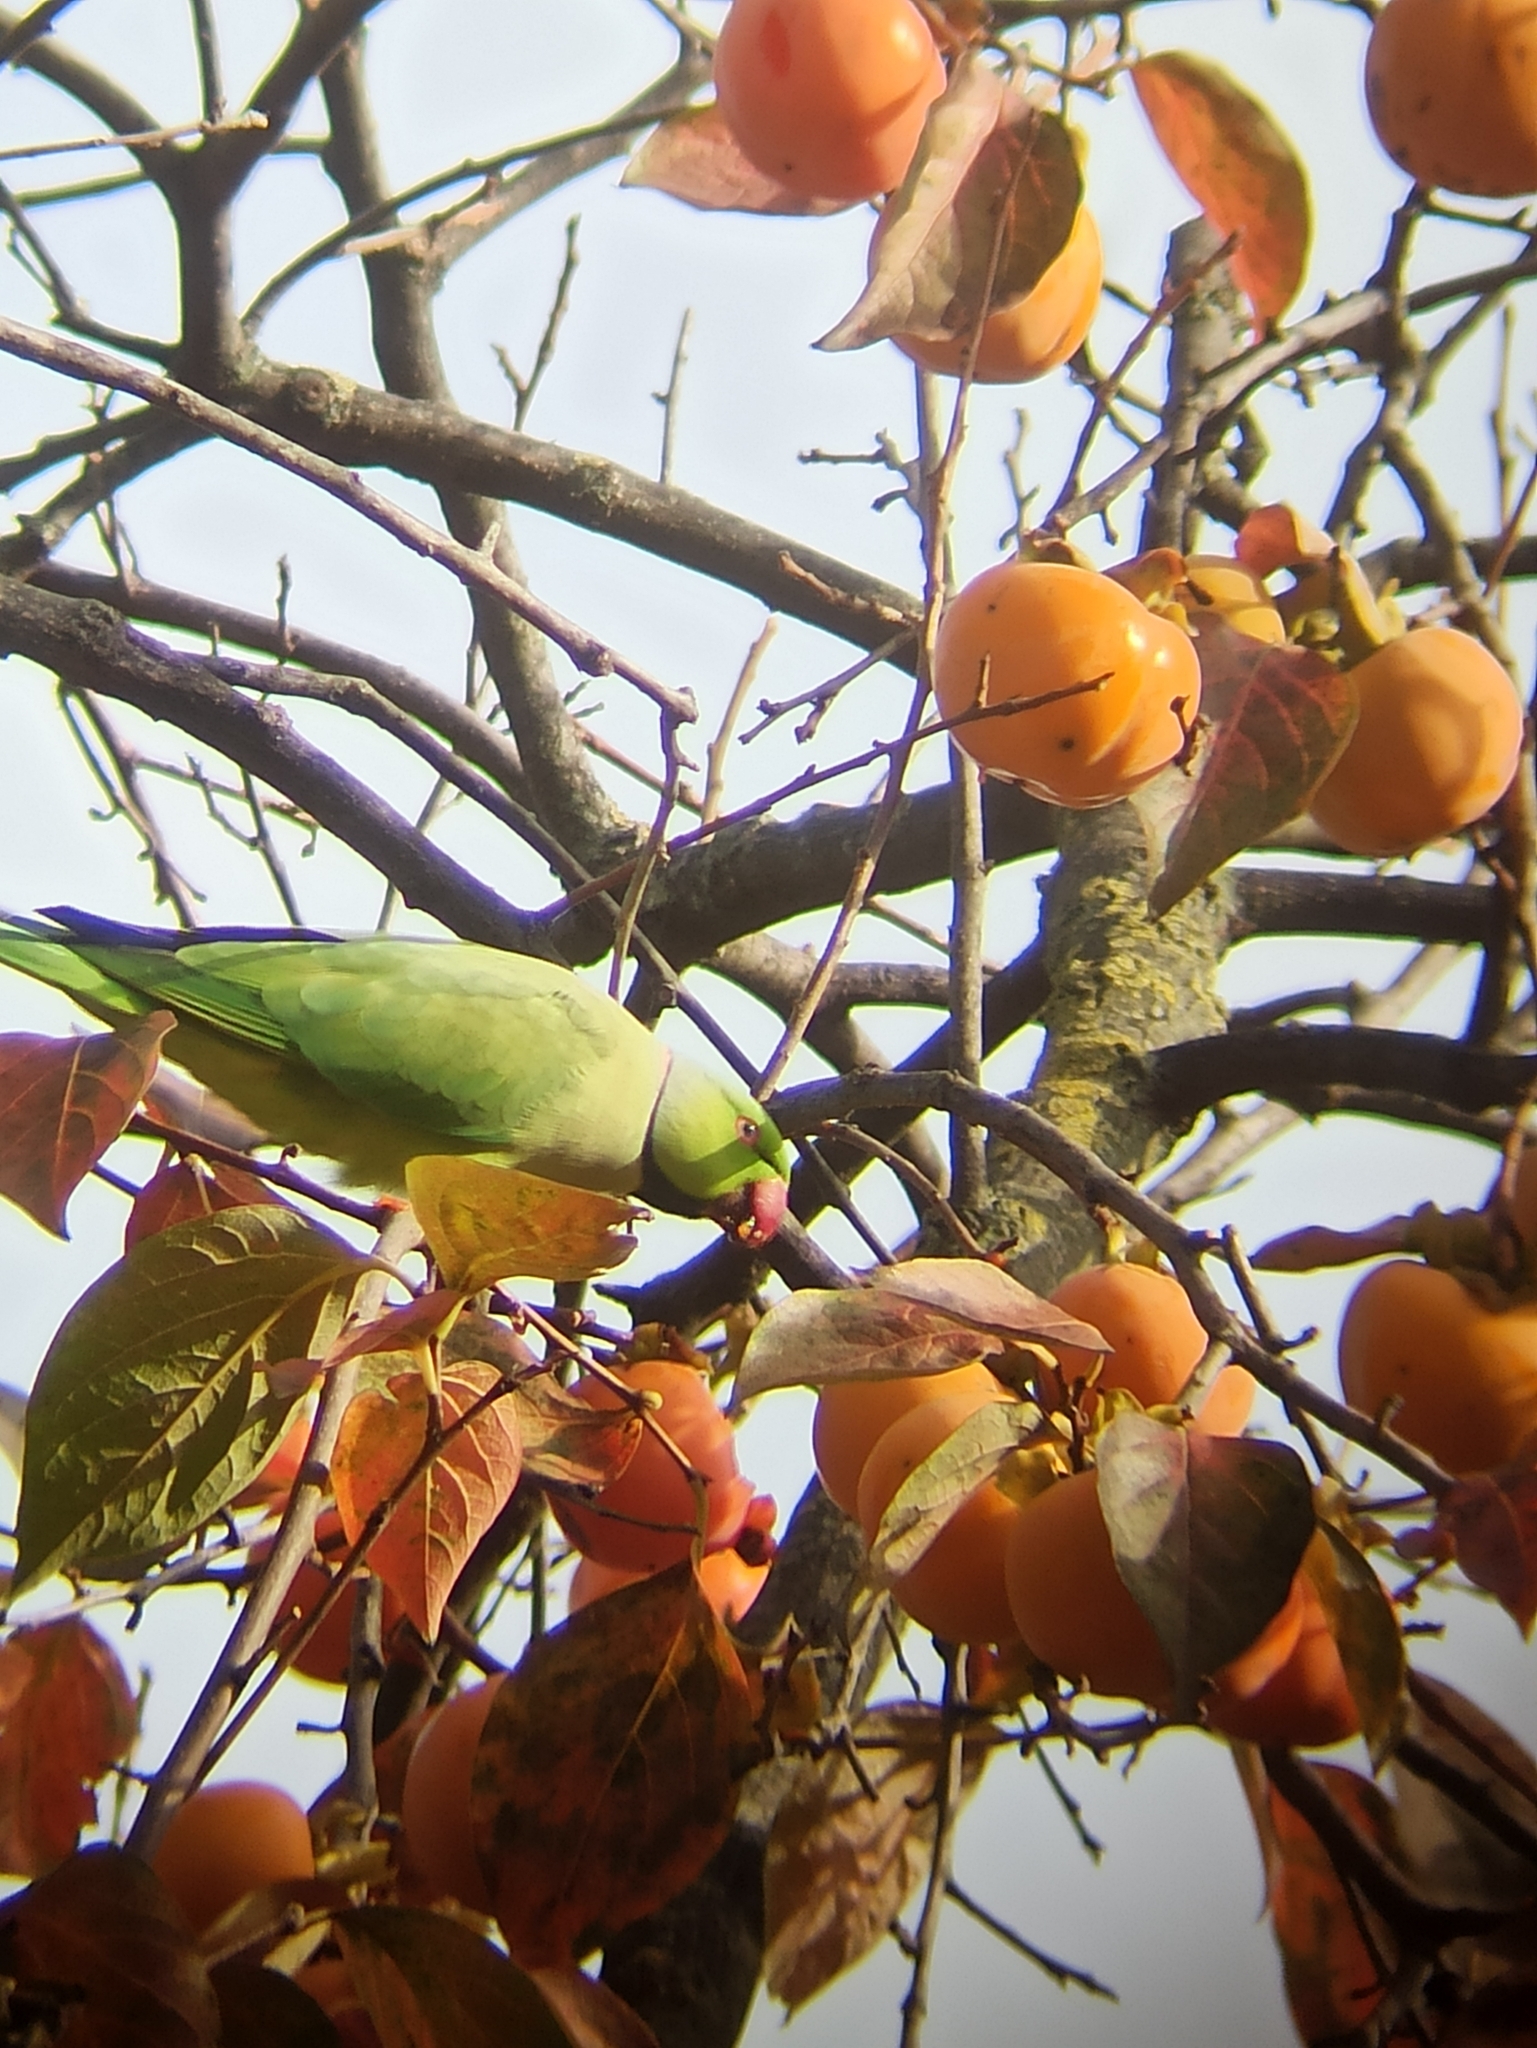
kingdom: Animalia
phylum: Chordata
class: Aves
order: Psittaciformes
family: Psittacidae
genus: Psittacula
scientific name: Psittacula krameri
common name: Rose-ringed parakeet
